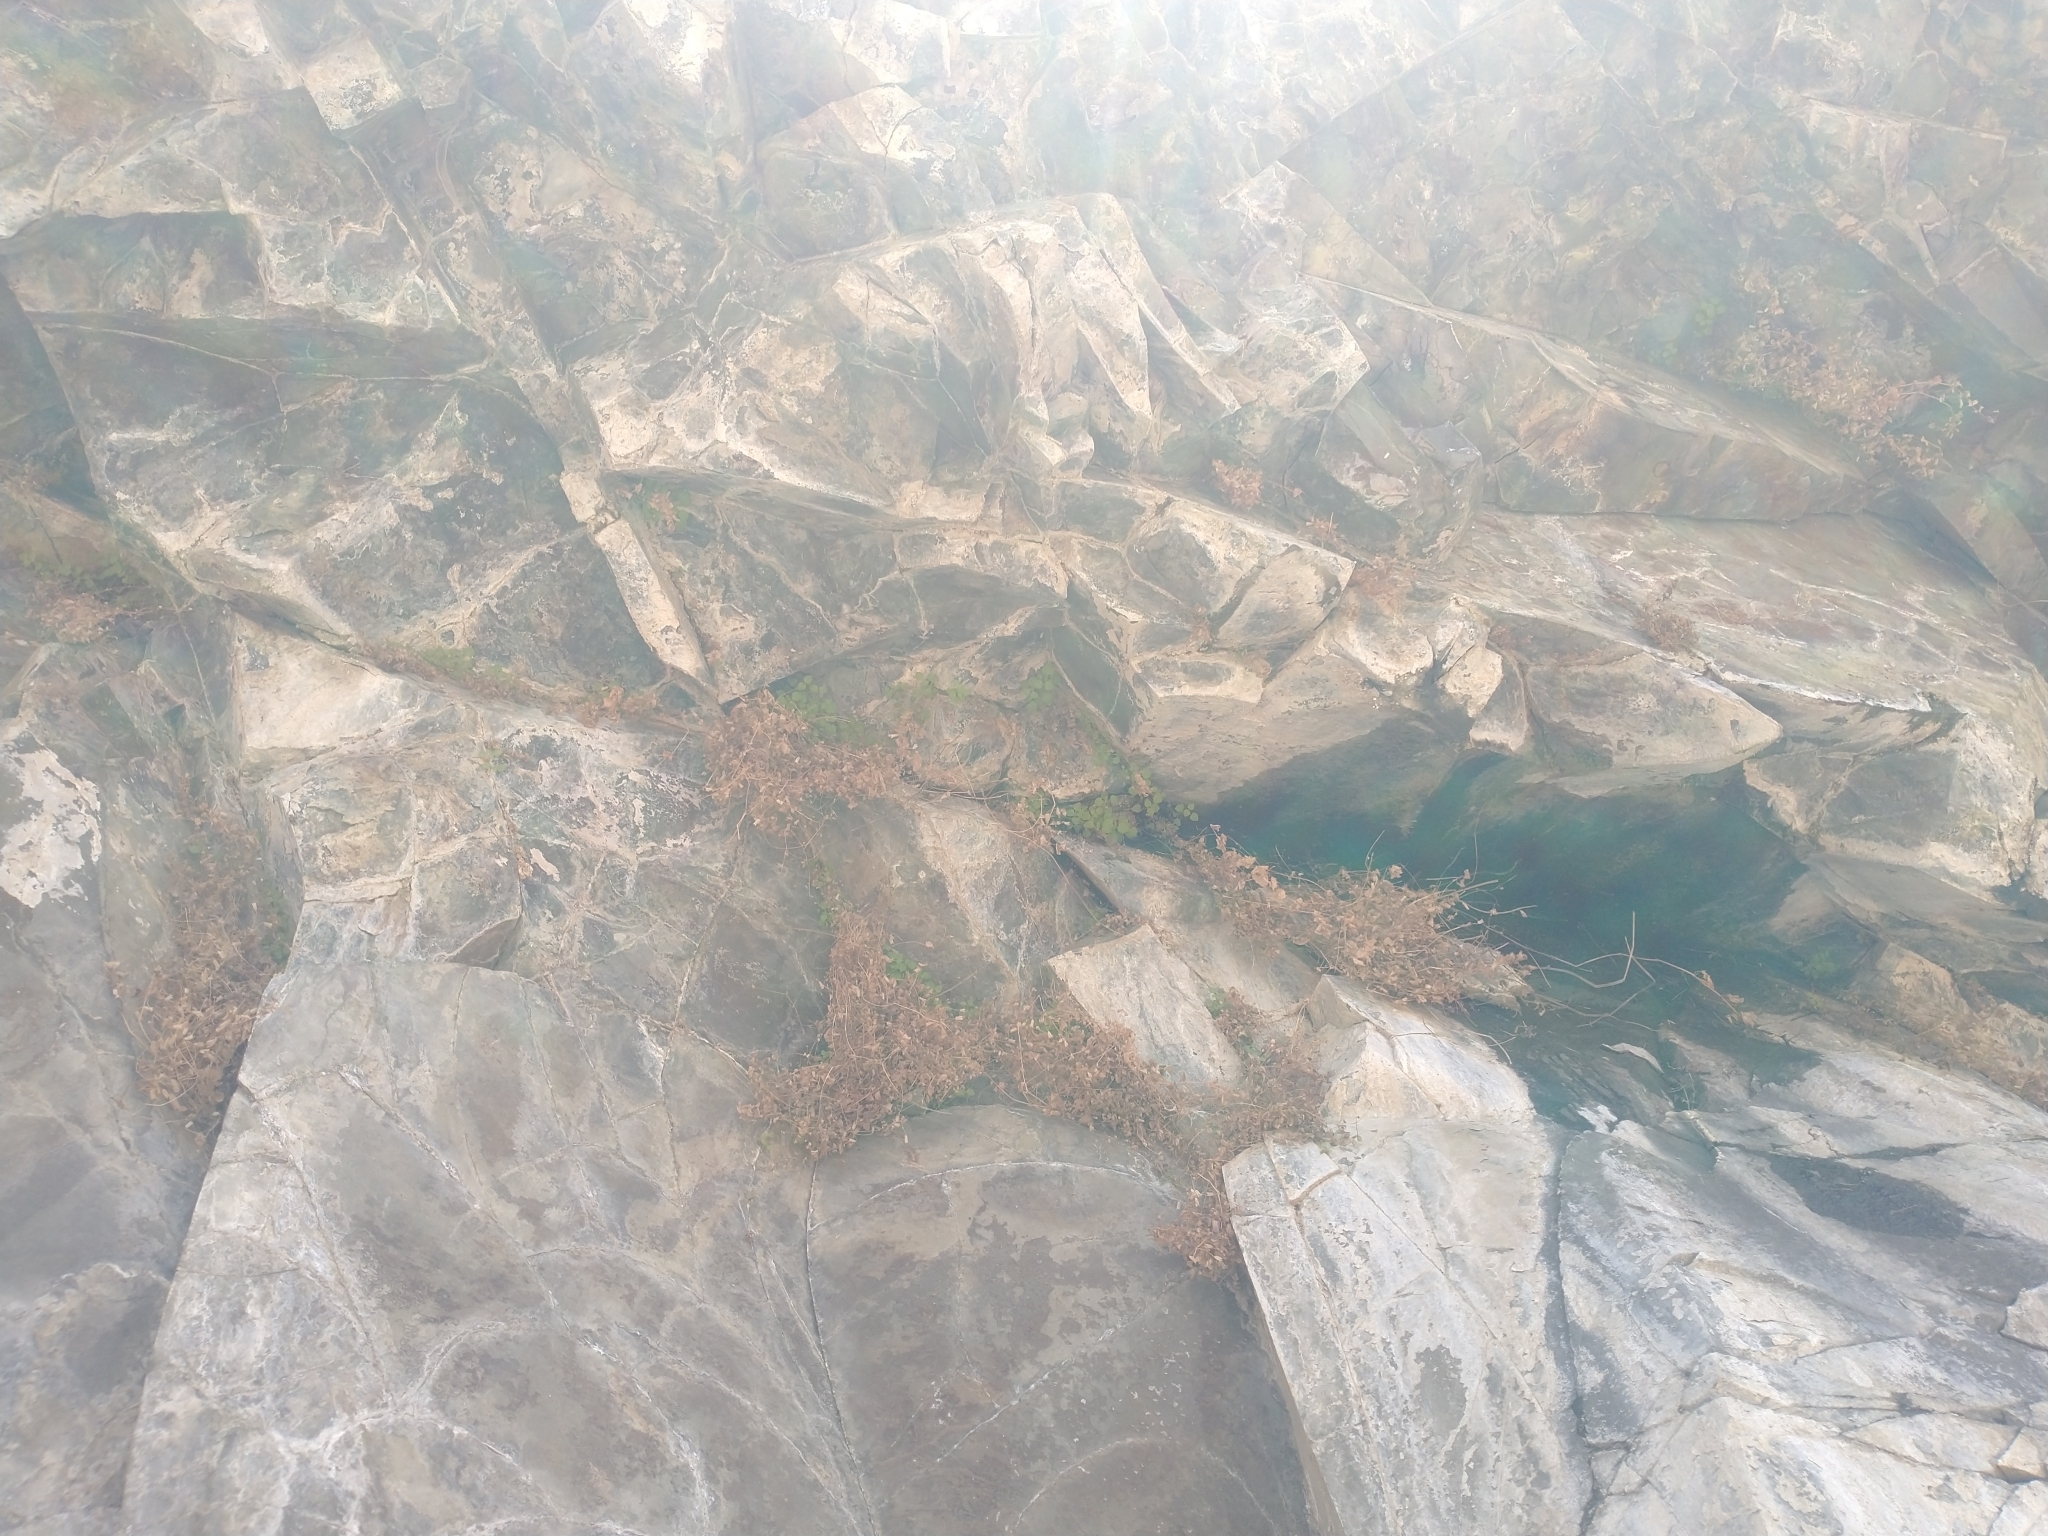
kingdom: Plantae
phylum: Tracheophyta
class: Magnoliopsida
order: Lamiales
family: Phrymaceae
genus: Erythranthe
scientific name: Erythranthe jungermannioides
